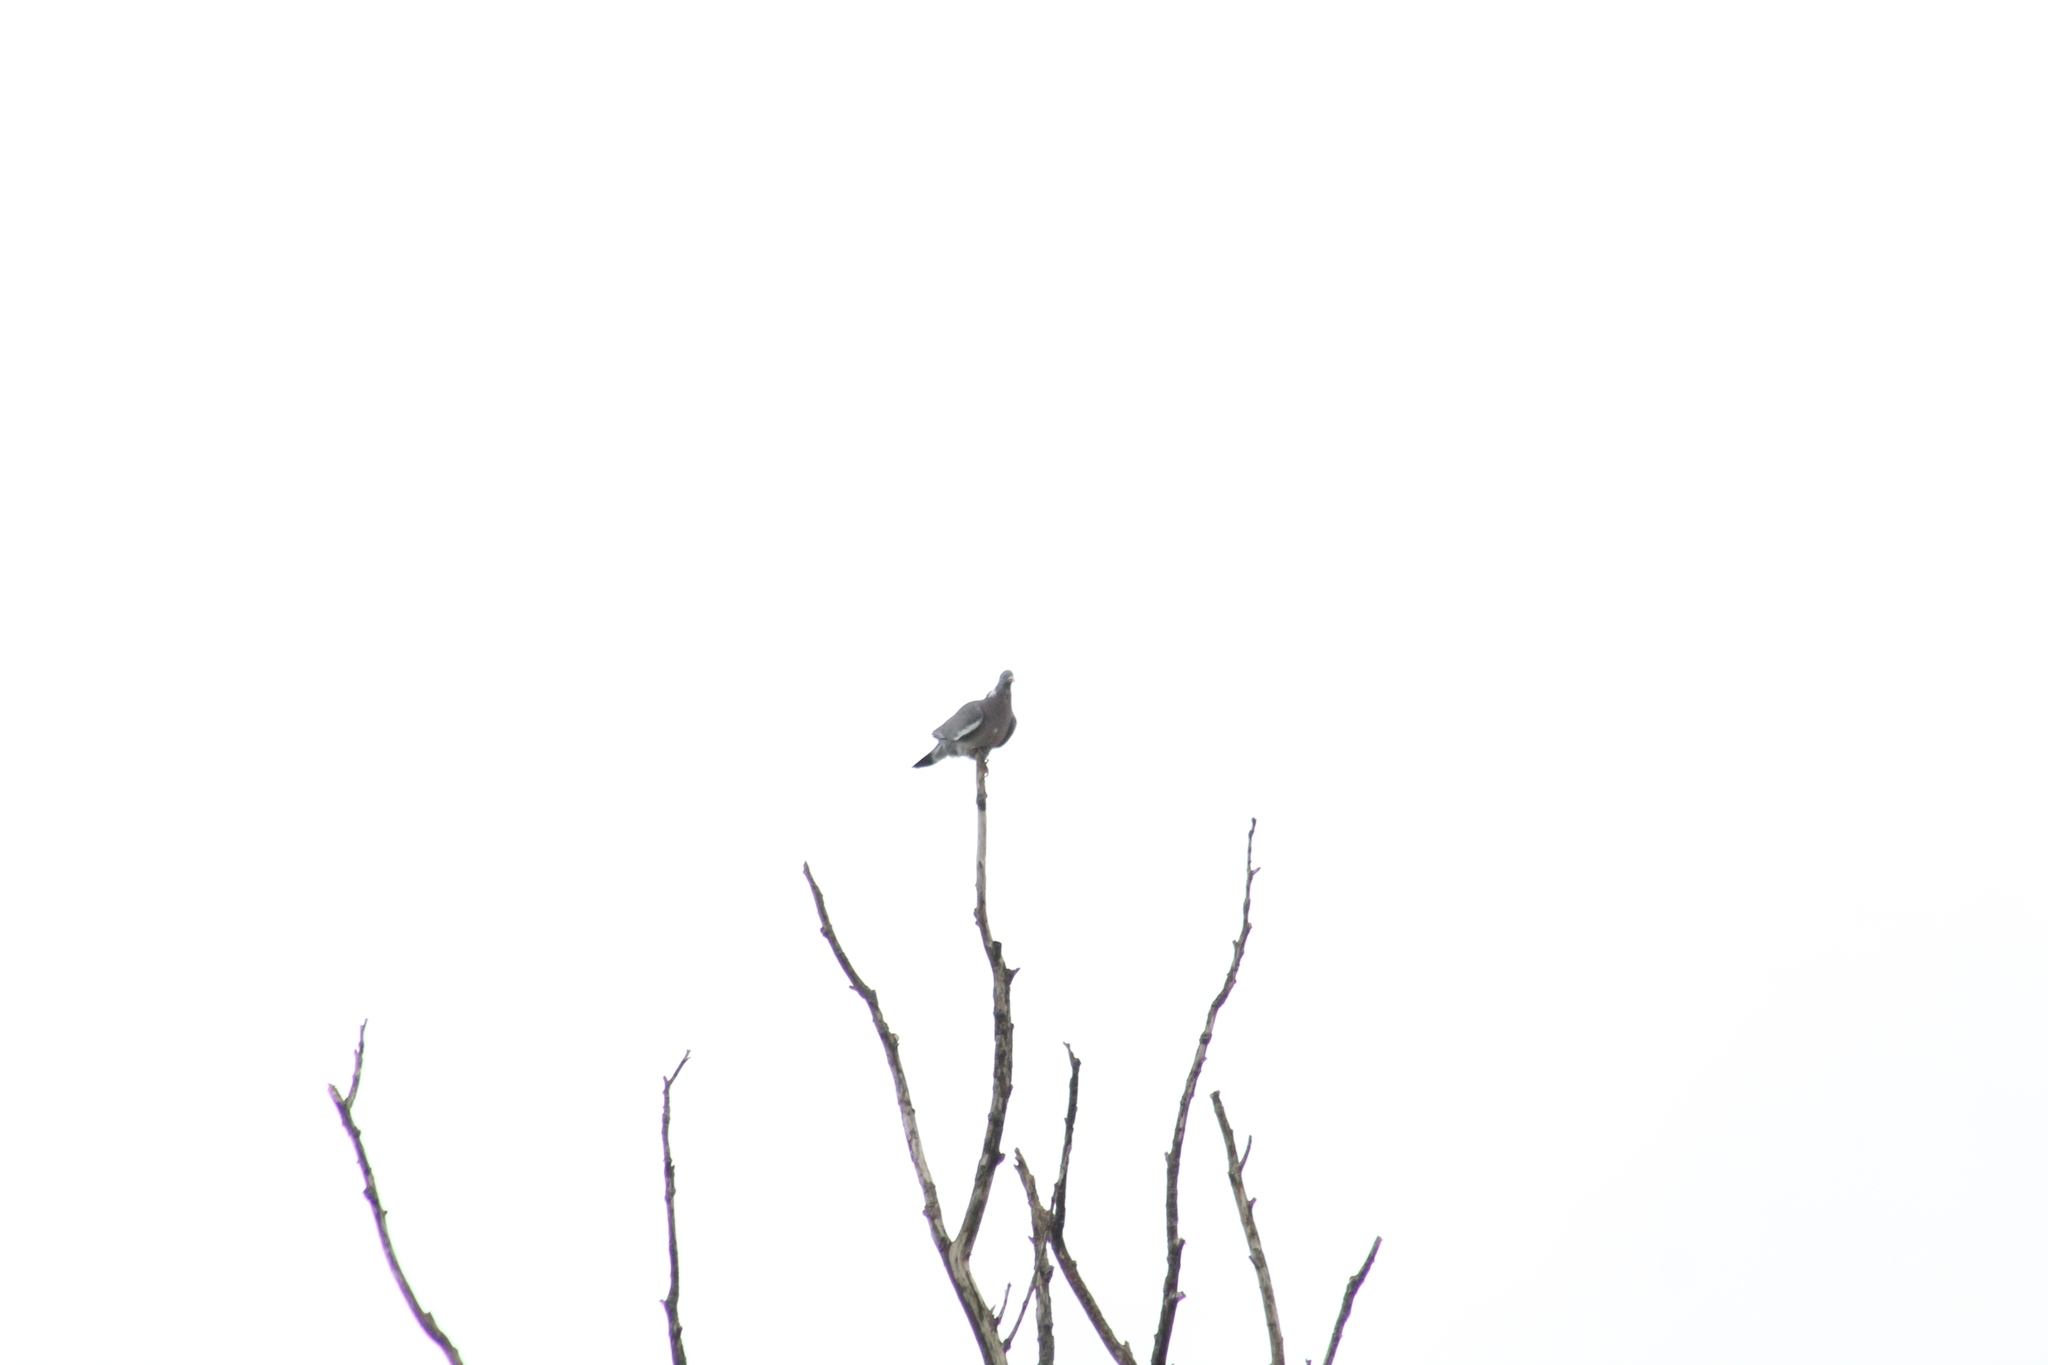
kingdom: Animalia
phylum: Chordata
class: Aves
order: Columbiformes
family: Columbidae
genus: Columba
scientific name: Columba palumbus
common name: Common wood pigeon
